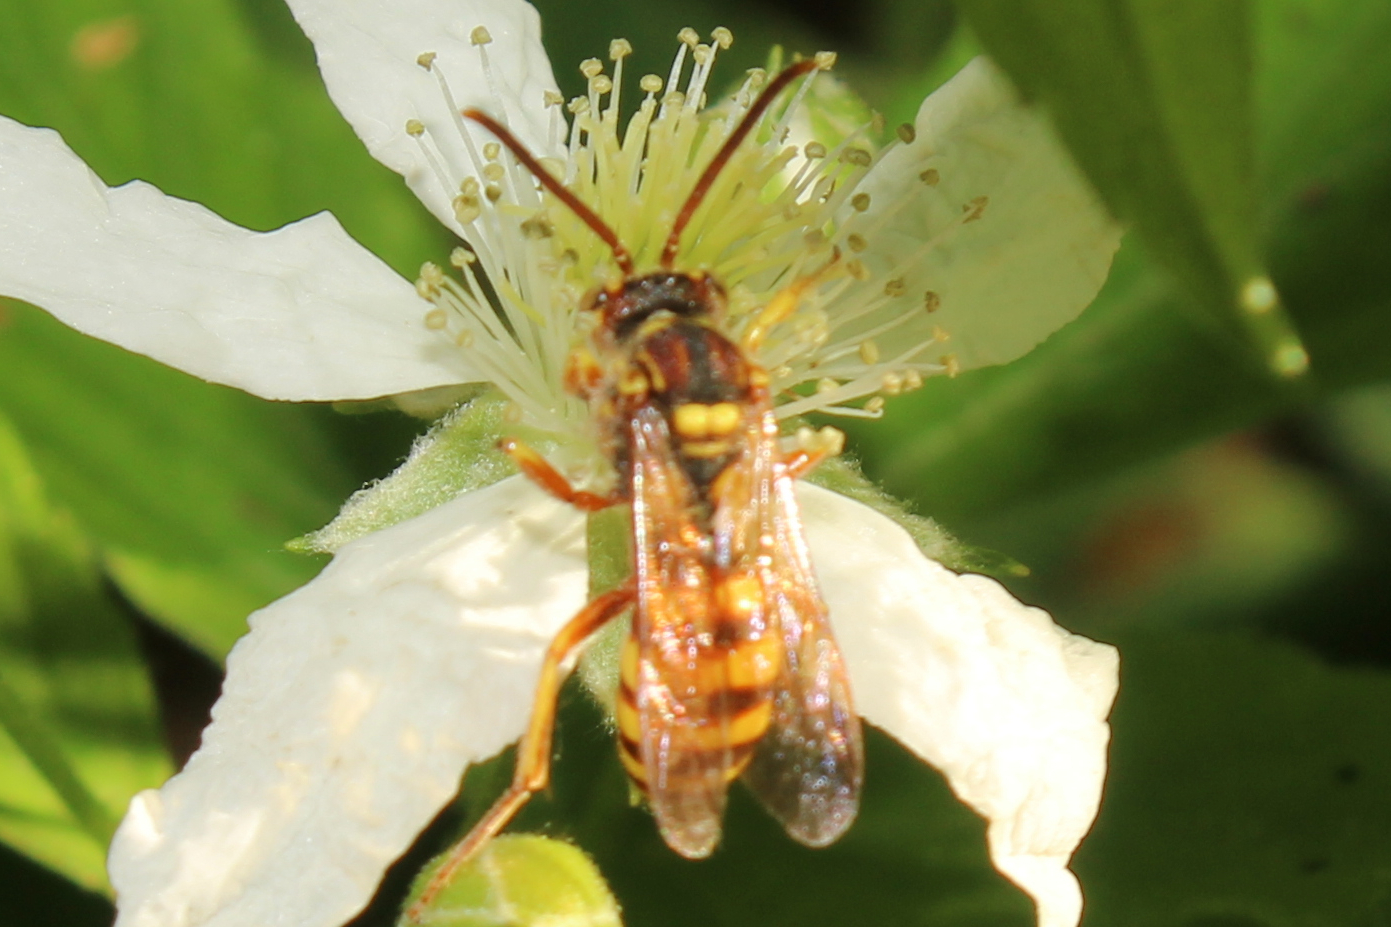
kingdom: Animalia
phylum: Arthropoda
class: Insecta
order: Hymenoptera
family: Apidae
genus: Nomada
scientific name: Nomada luteoloides
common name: Black-and-yellow nomad bee
